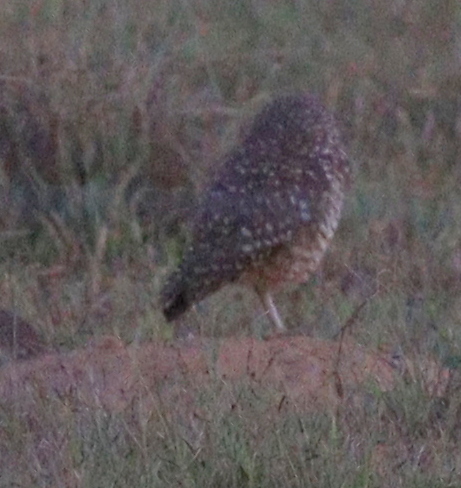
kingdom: Animalia
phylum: Chordata
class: Aves
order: Strigiformes
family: Strigidae
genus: Athene
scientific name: Athene cunicularia
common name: Burrowing owl
